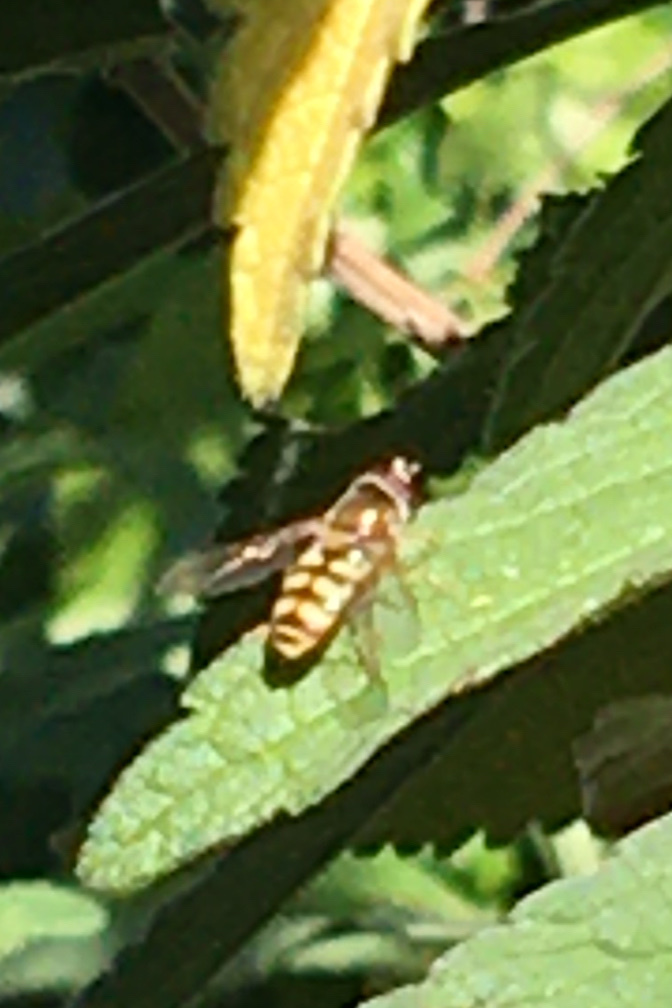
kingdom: Animalia
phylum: Arthropoda
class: Insecta
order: Diptera
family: Syrphidae
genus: Eupeodes
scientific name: Eupeodes corollae
